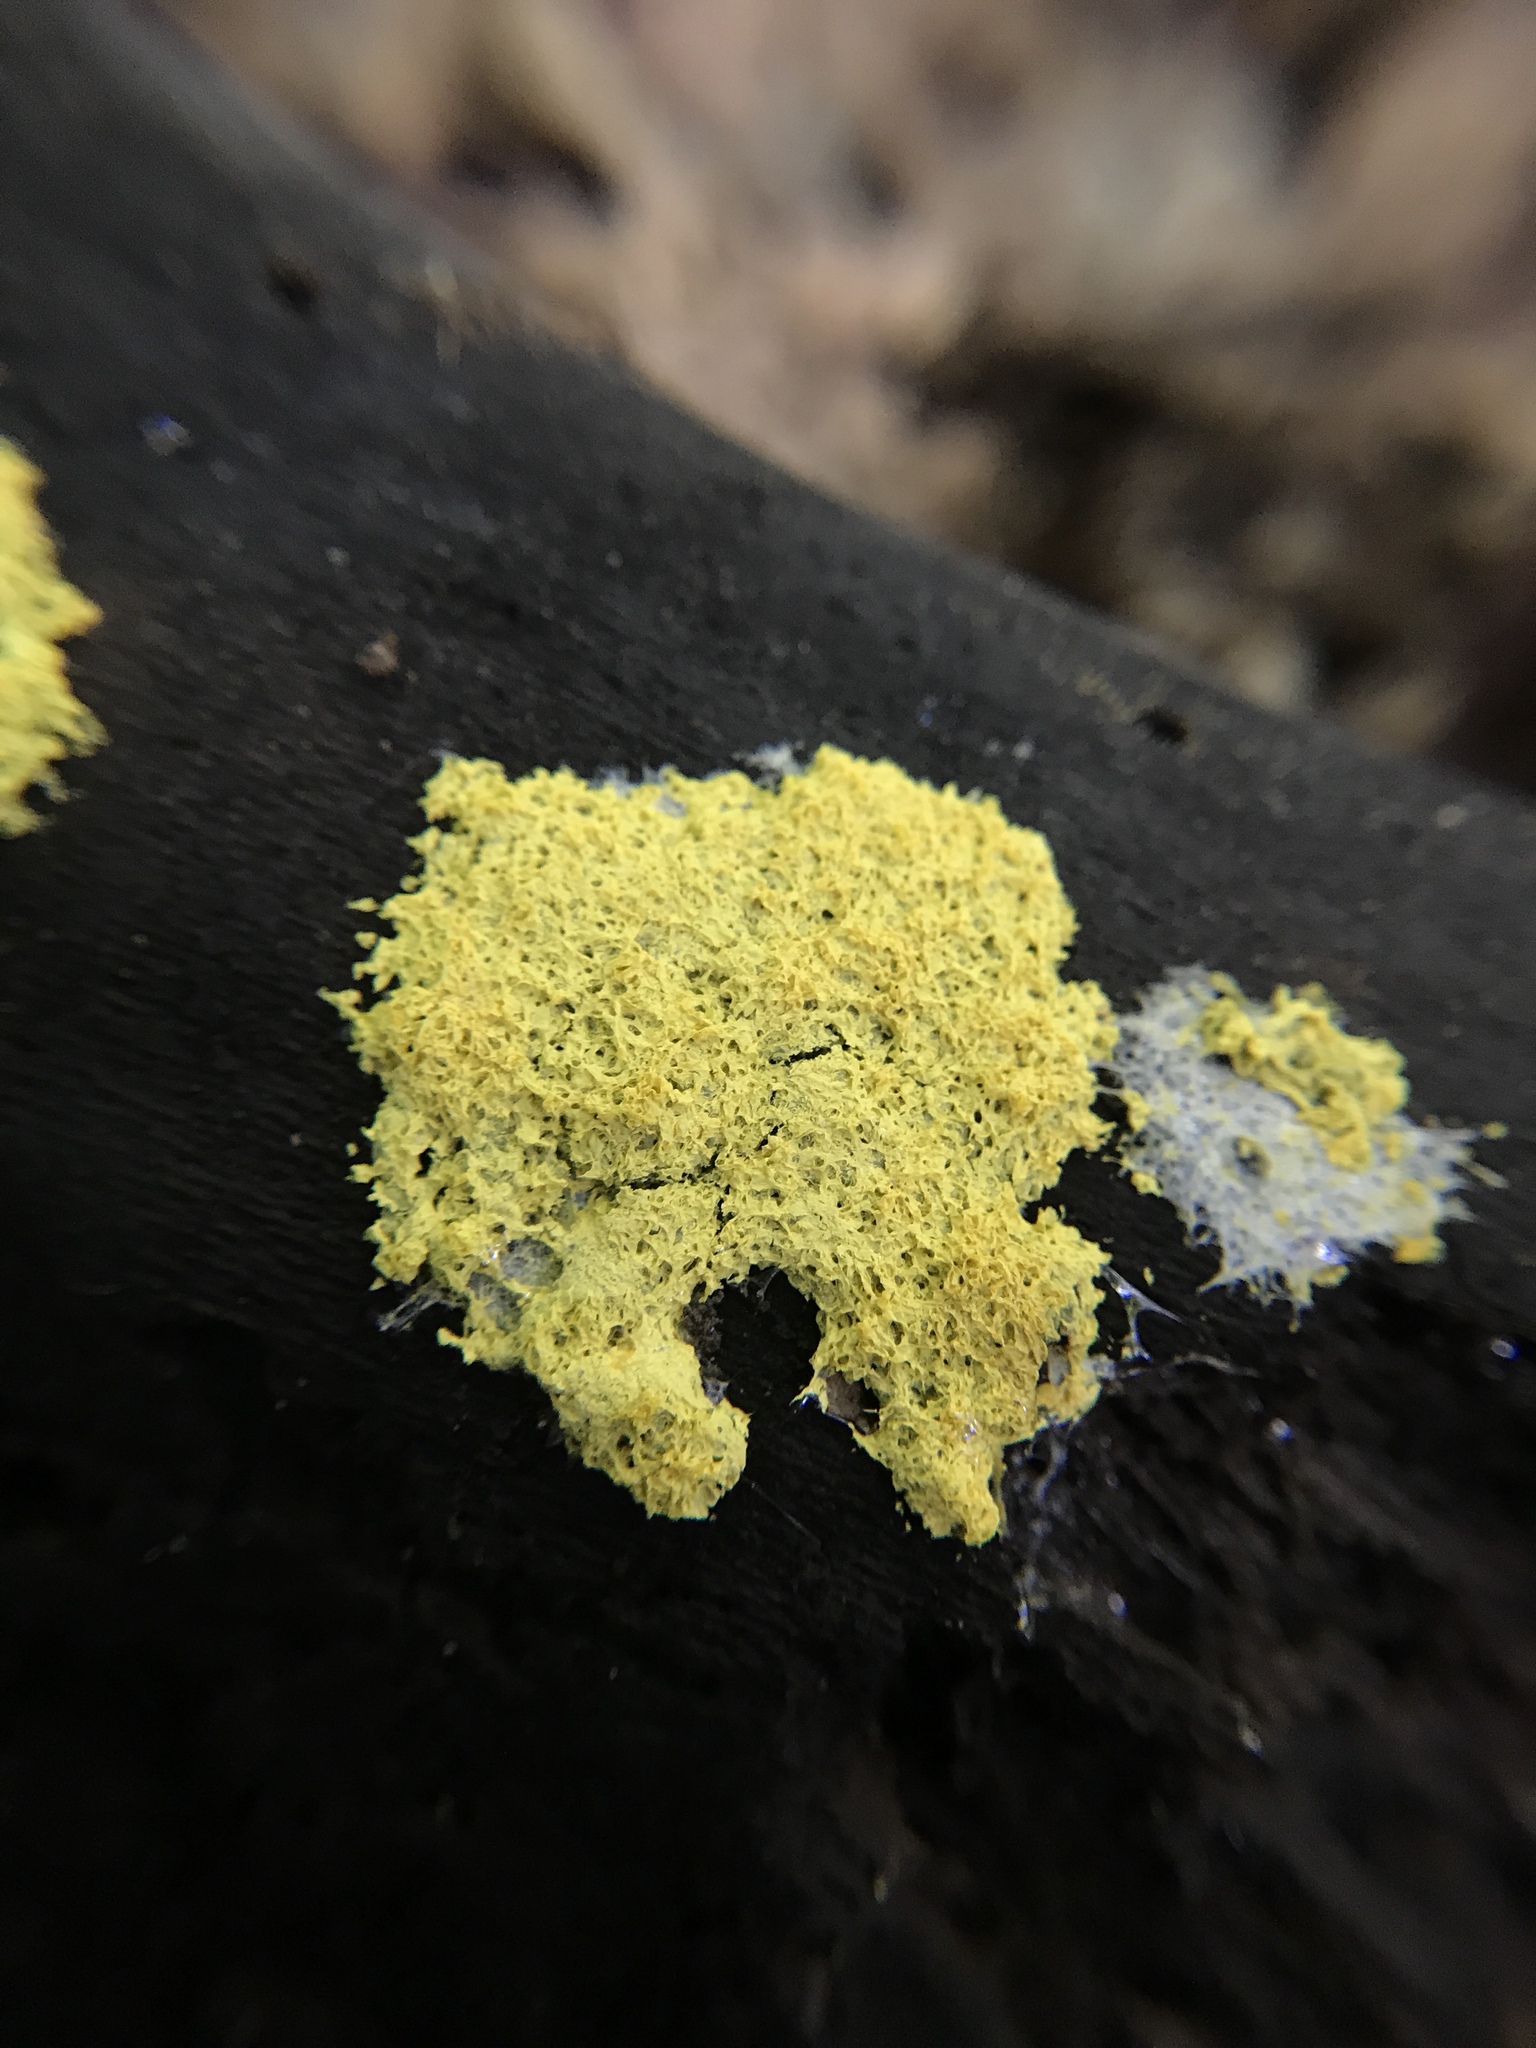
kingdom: Protozoa
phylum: Mycetozoa
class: Myxomycetes
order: Physarales
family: Physaraceae
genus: Fuligo
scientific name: Fuligo septica
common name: Dog vomit slime mold
